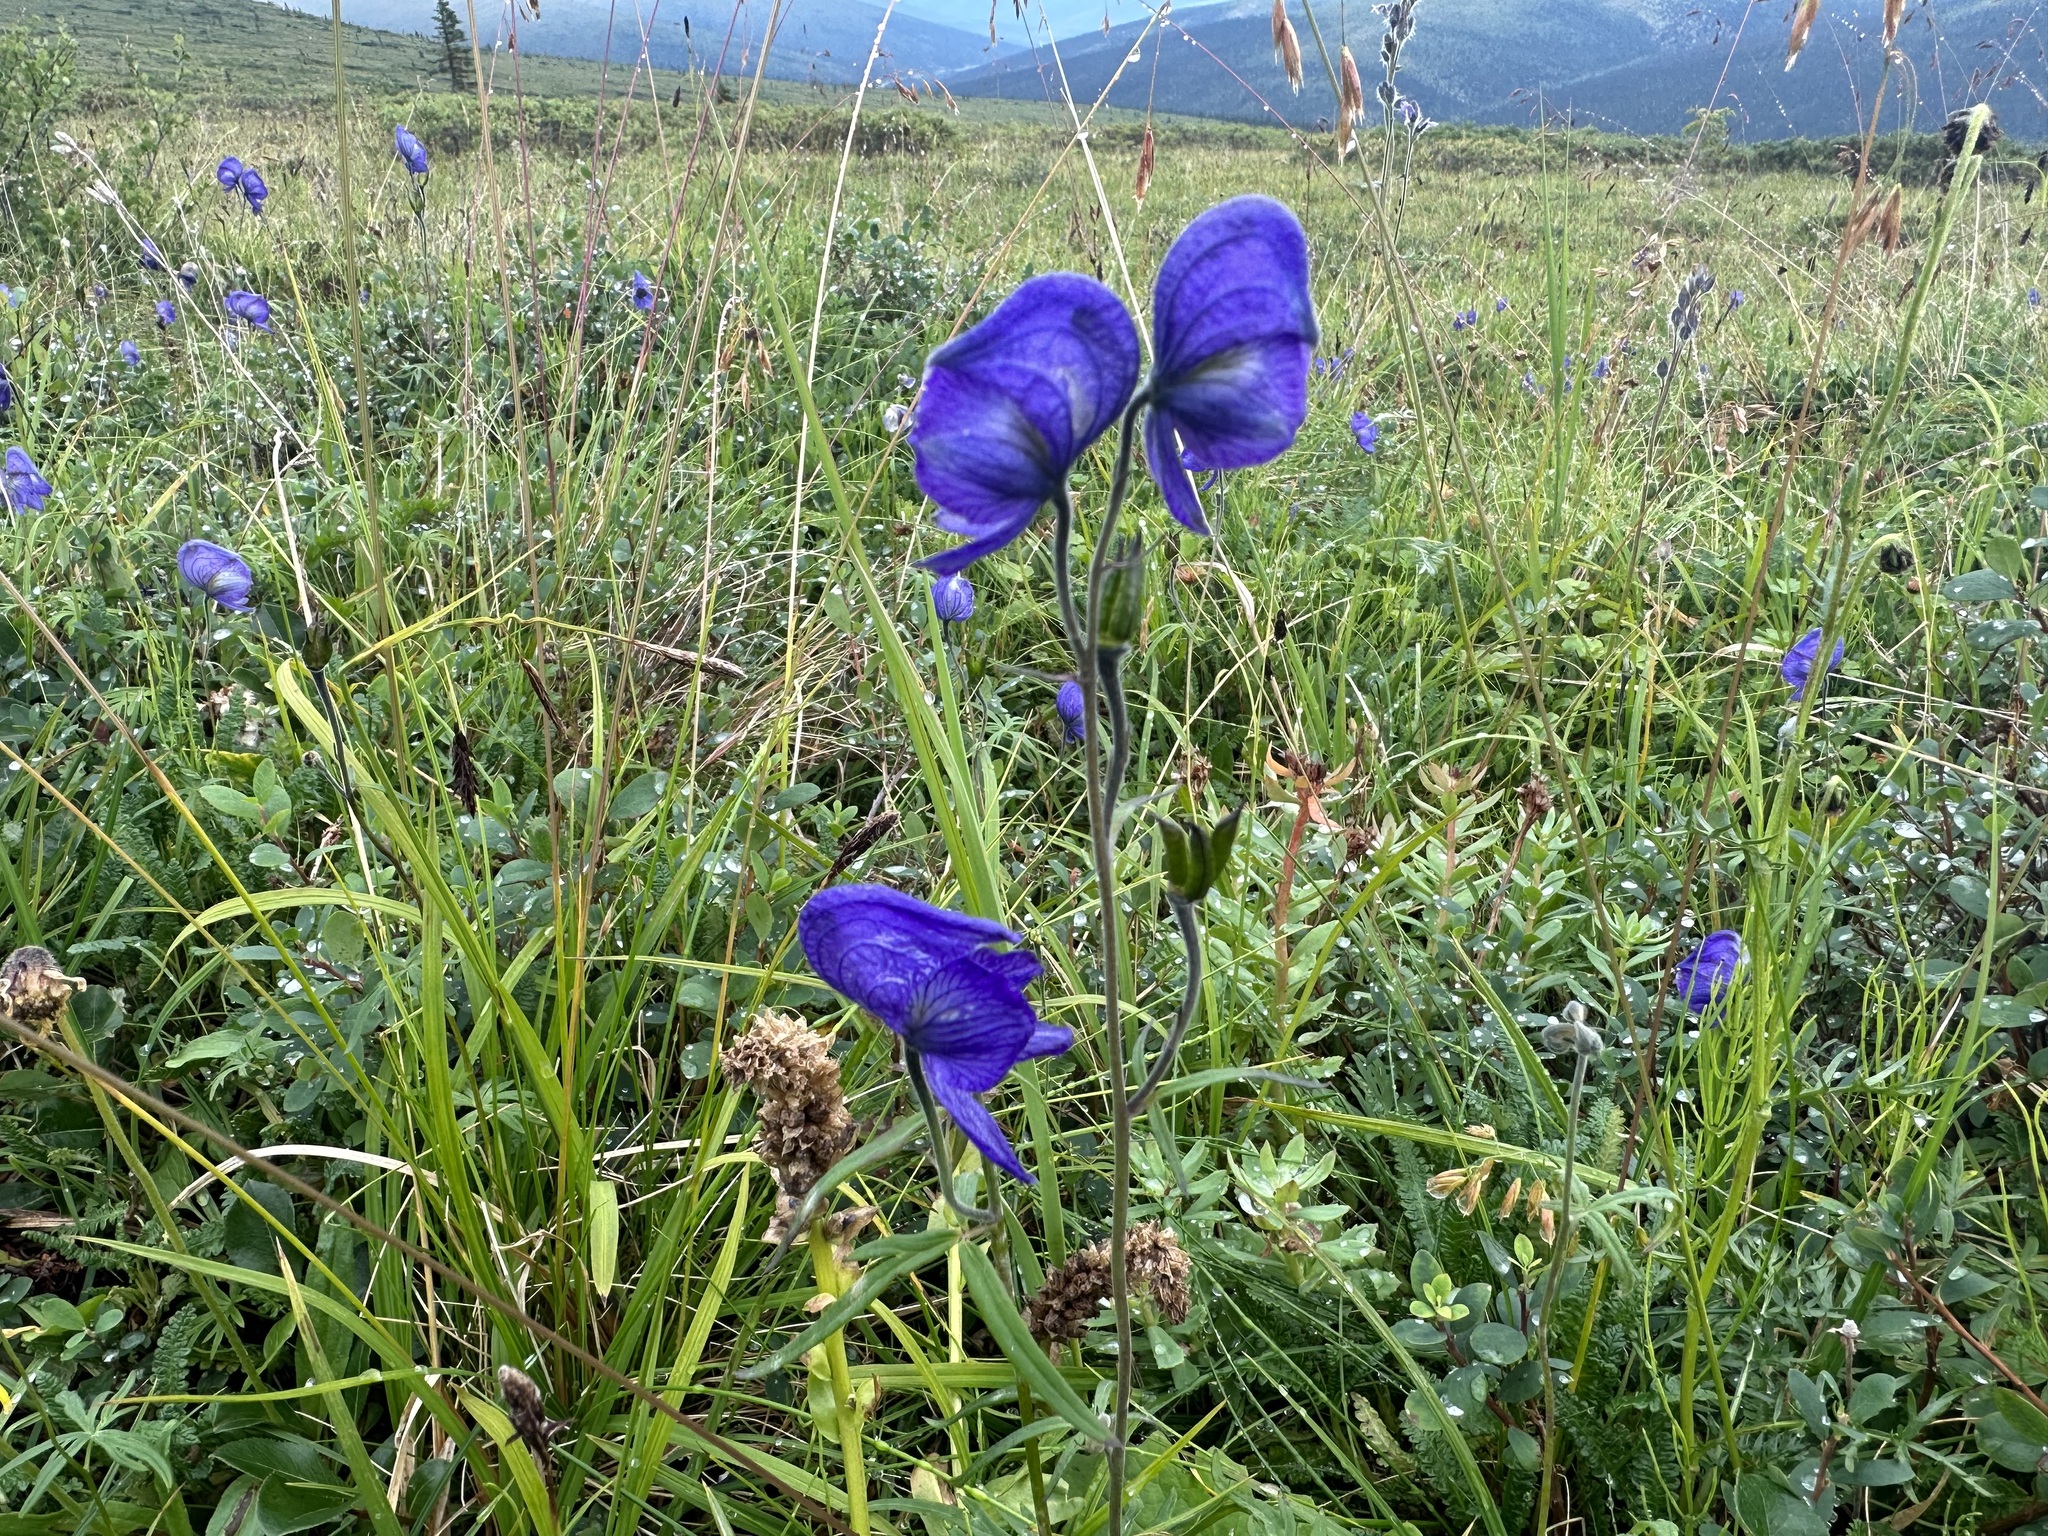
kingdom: Plantae
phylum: Tracheophyta
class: Magnoliopsida
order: Ranunculales
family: Ranunculaceae
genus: Aconitum
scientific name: Aconitum delphiniifolium
